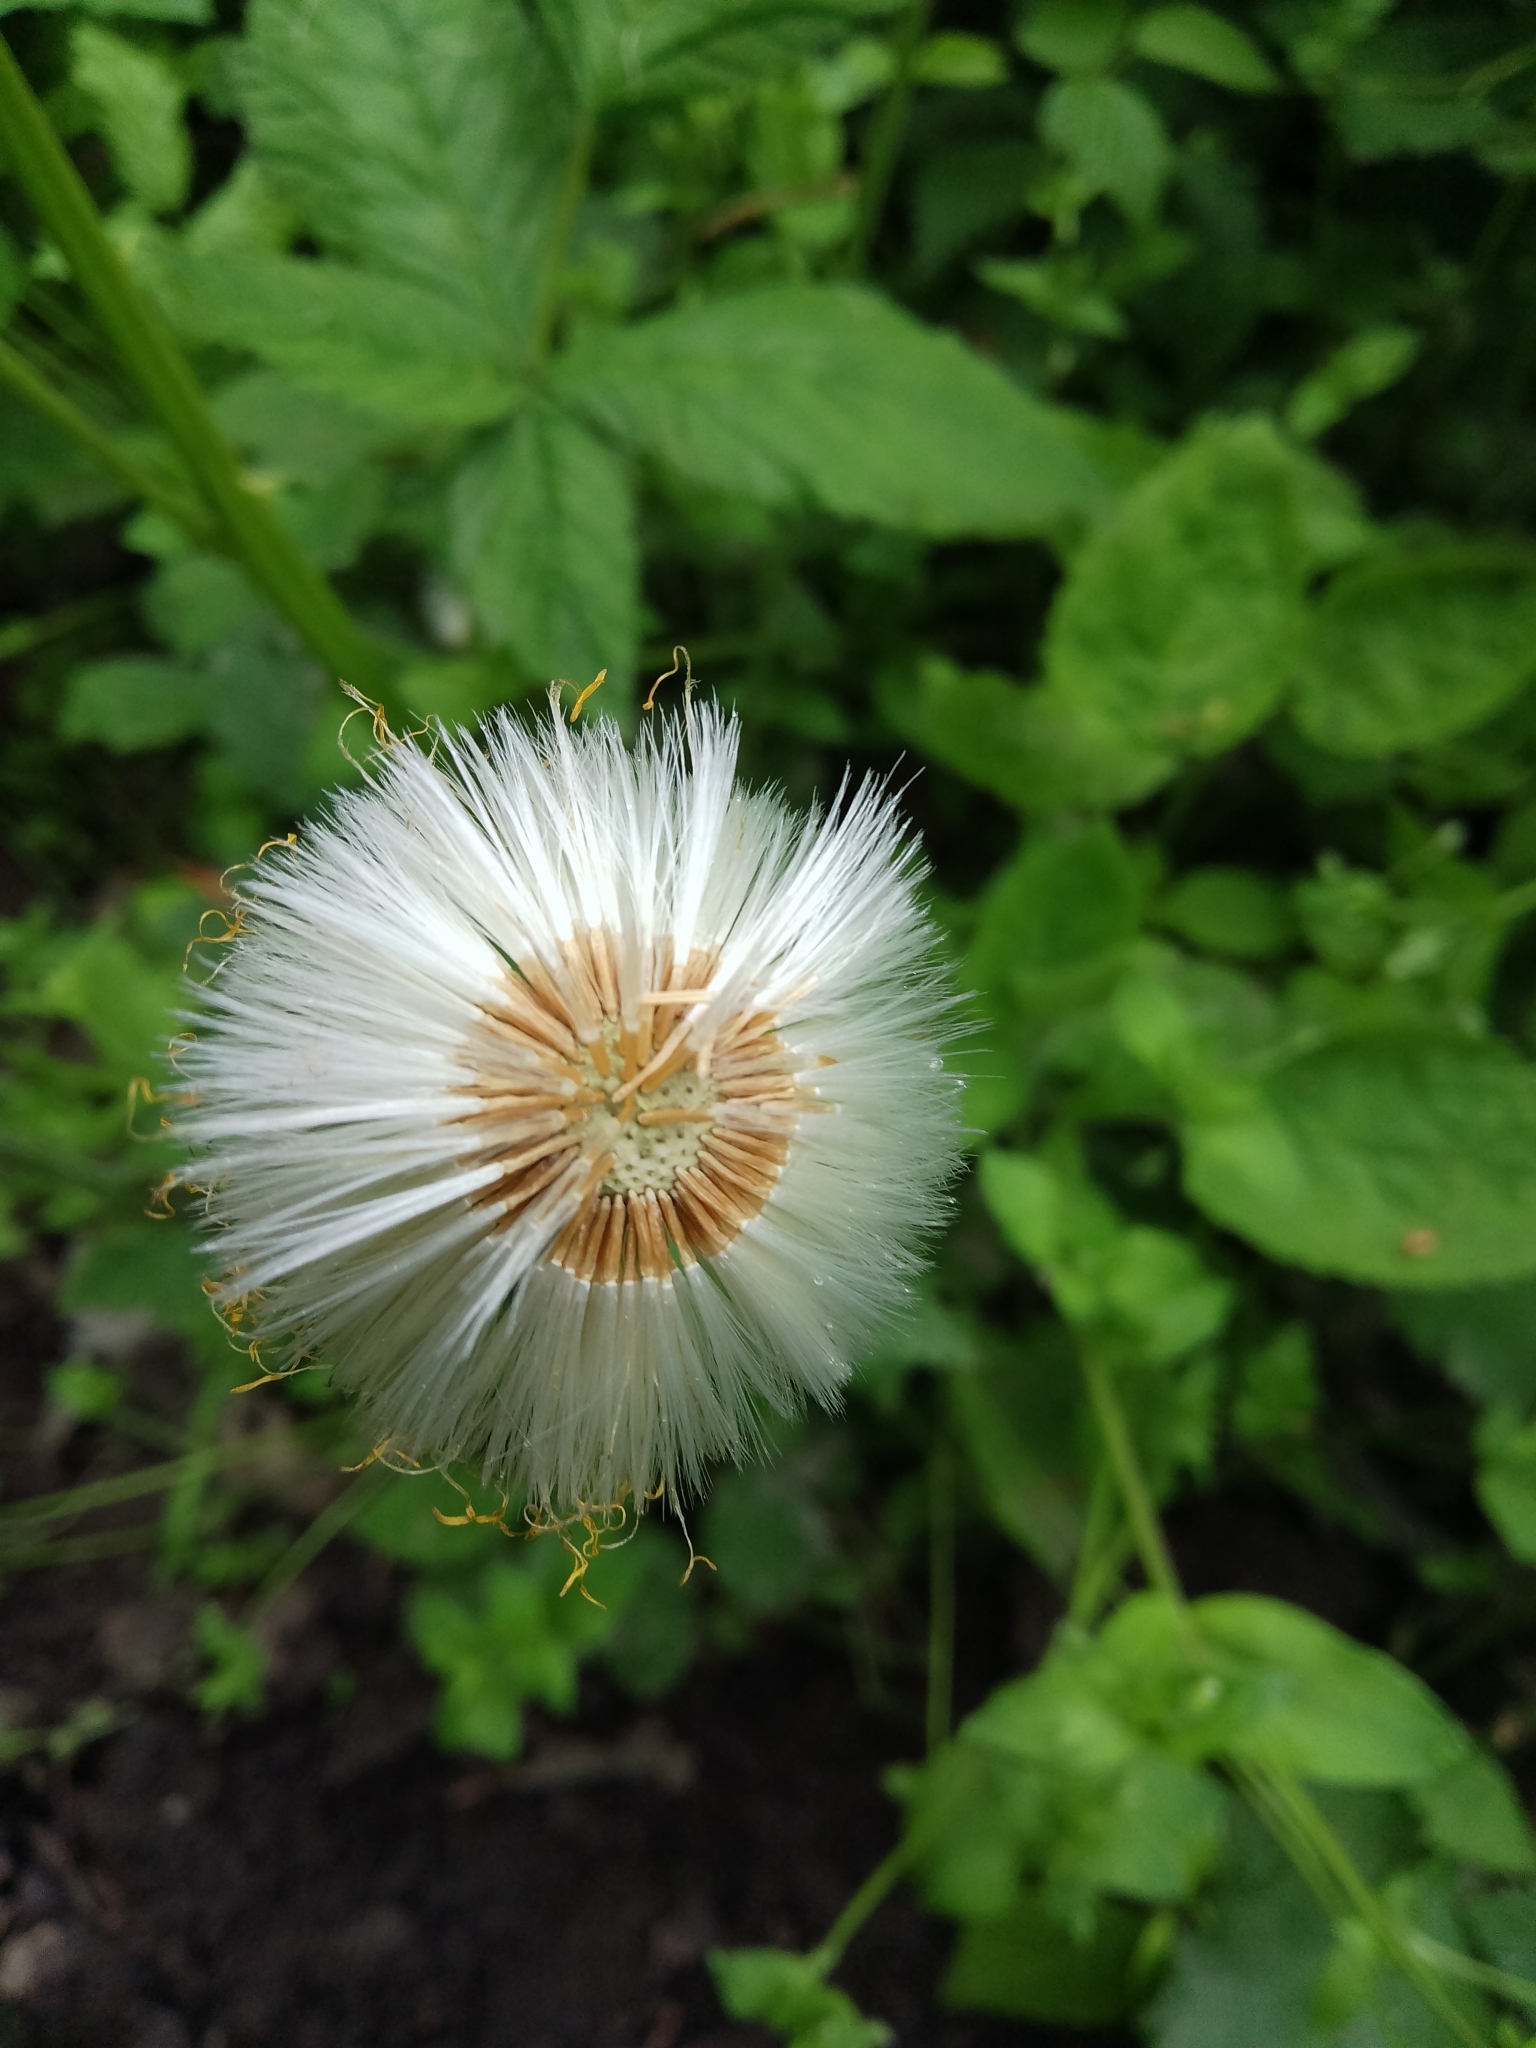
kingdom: Plantae
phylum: Tracheophyta
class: Magnoliopsida
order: Asterales
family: Asteraceae
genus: Tussilago
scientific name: Tussilago farfara
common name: Coltsfoot
